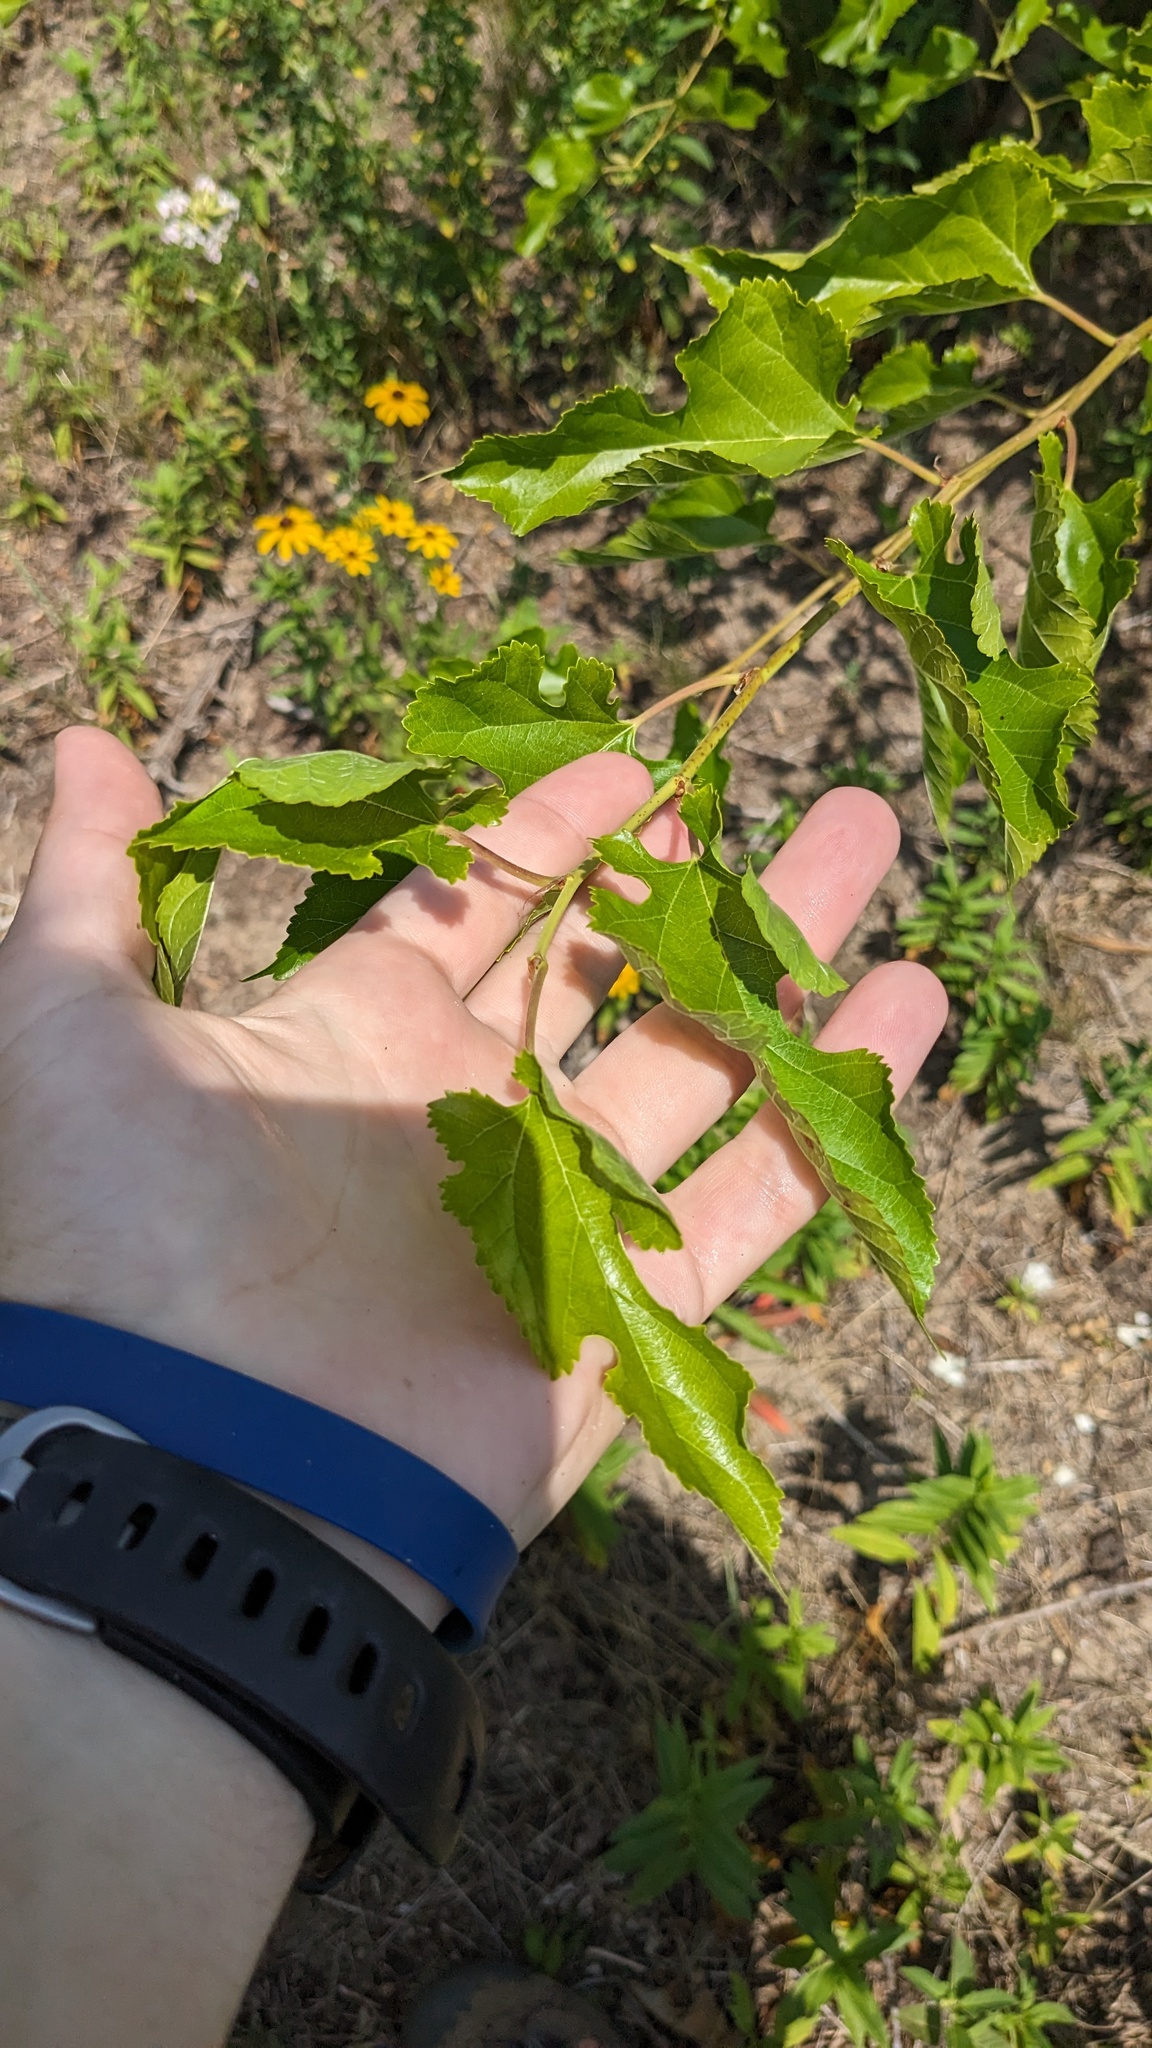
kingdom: Plantae
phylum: Tracheophyta
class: Magnoliopsida
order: Rosales
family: Moraceae
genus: Morus
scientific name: Morus alba
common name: White mulberry
